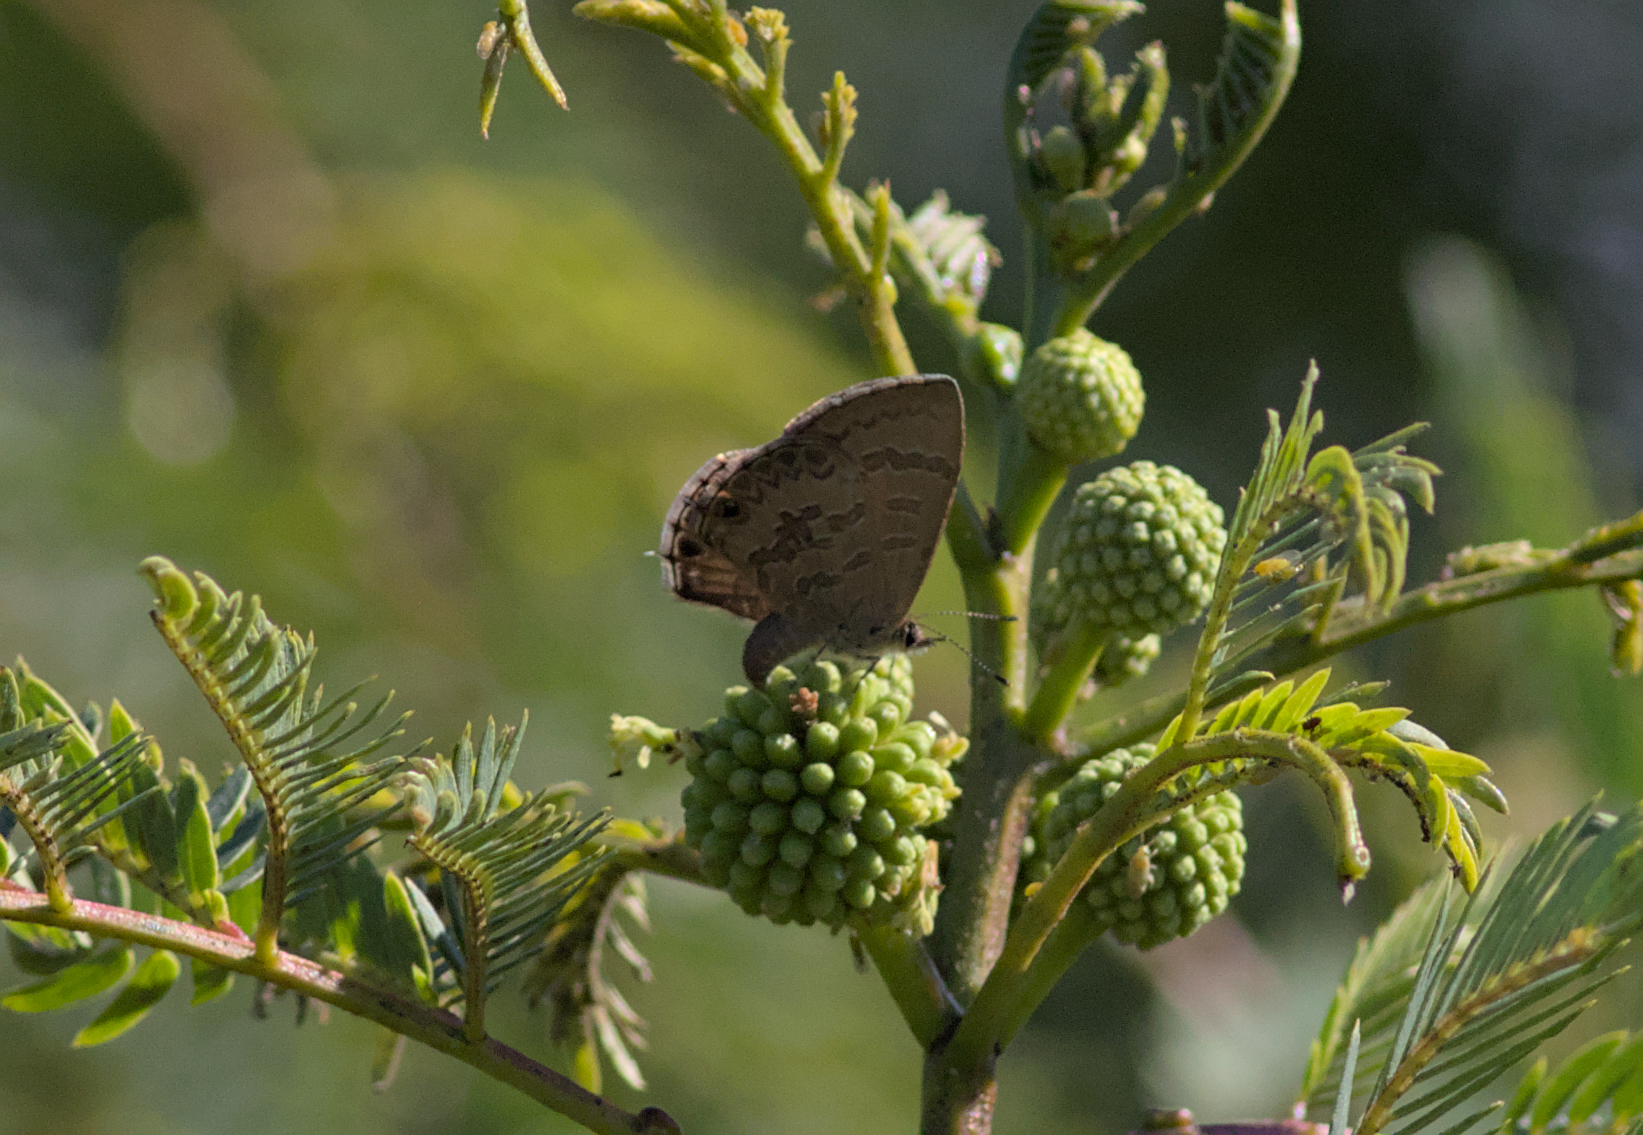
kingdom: Animalia
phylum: Arthropoda
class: Insecta
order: Lepidoptera
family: Lycaenidae
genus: Prosotas
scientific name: Prosotas felderi
